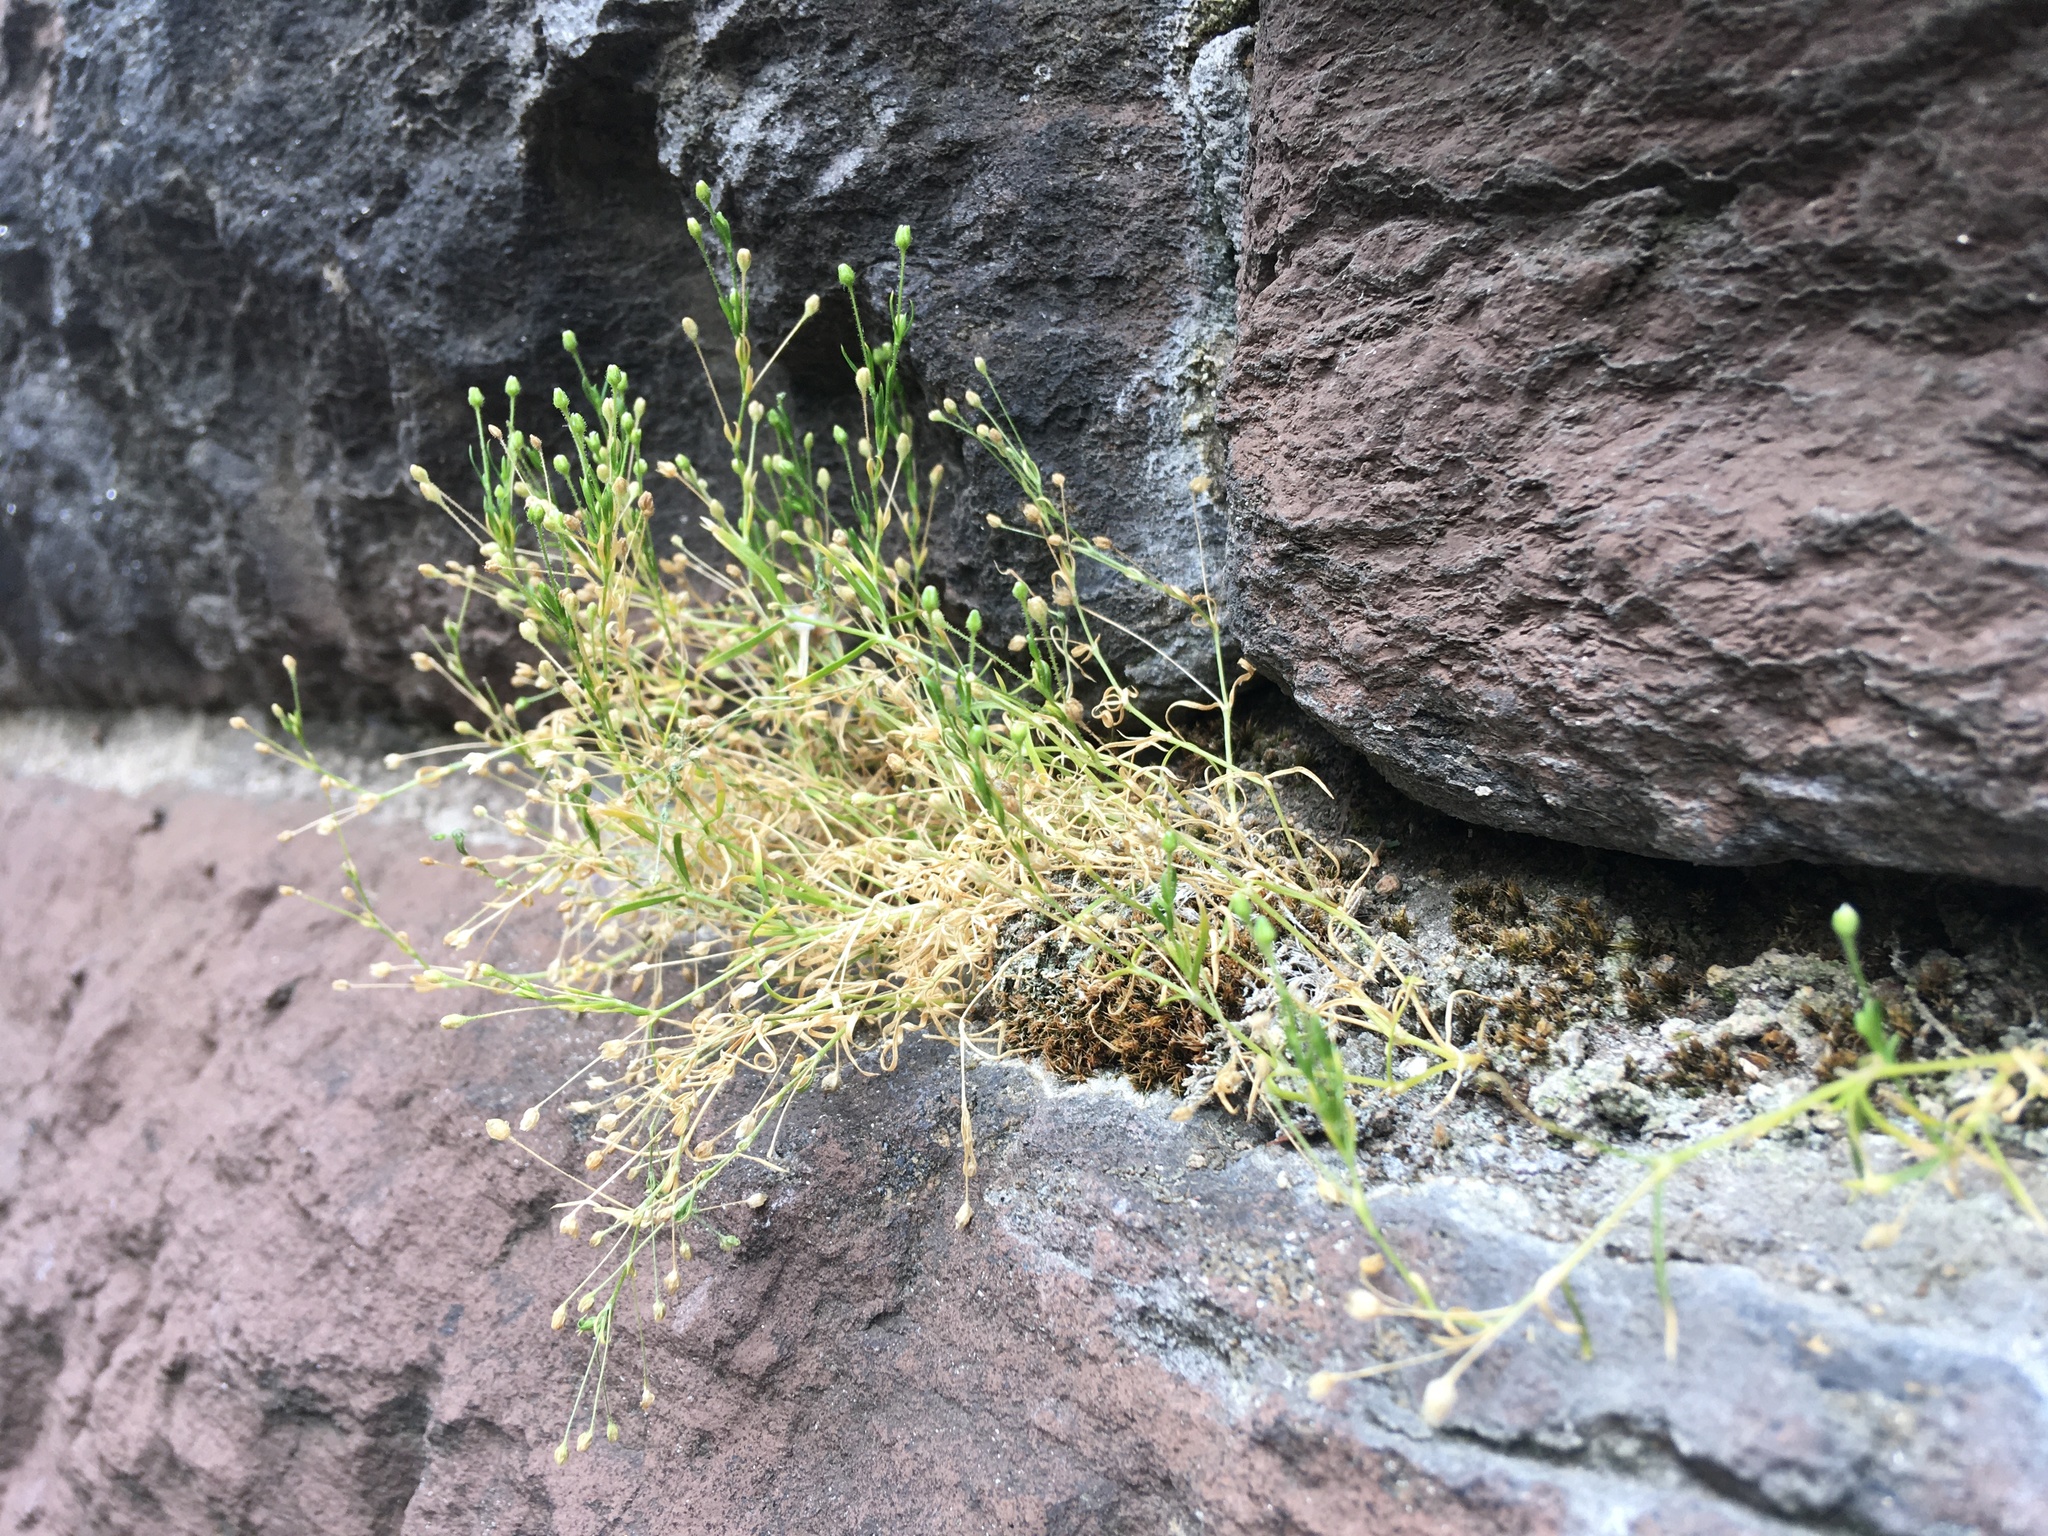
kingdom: Plantae
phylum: Tracheophyta
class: Magnoliopsida
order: Caryophyllales
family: Caryophyllaceae
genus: Sagina
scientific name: Sagina japonica
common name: Japanese pearlwort
